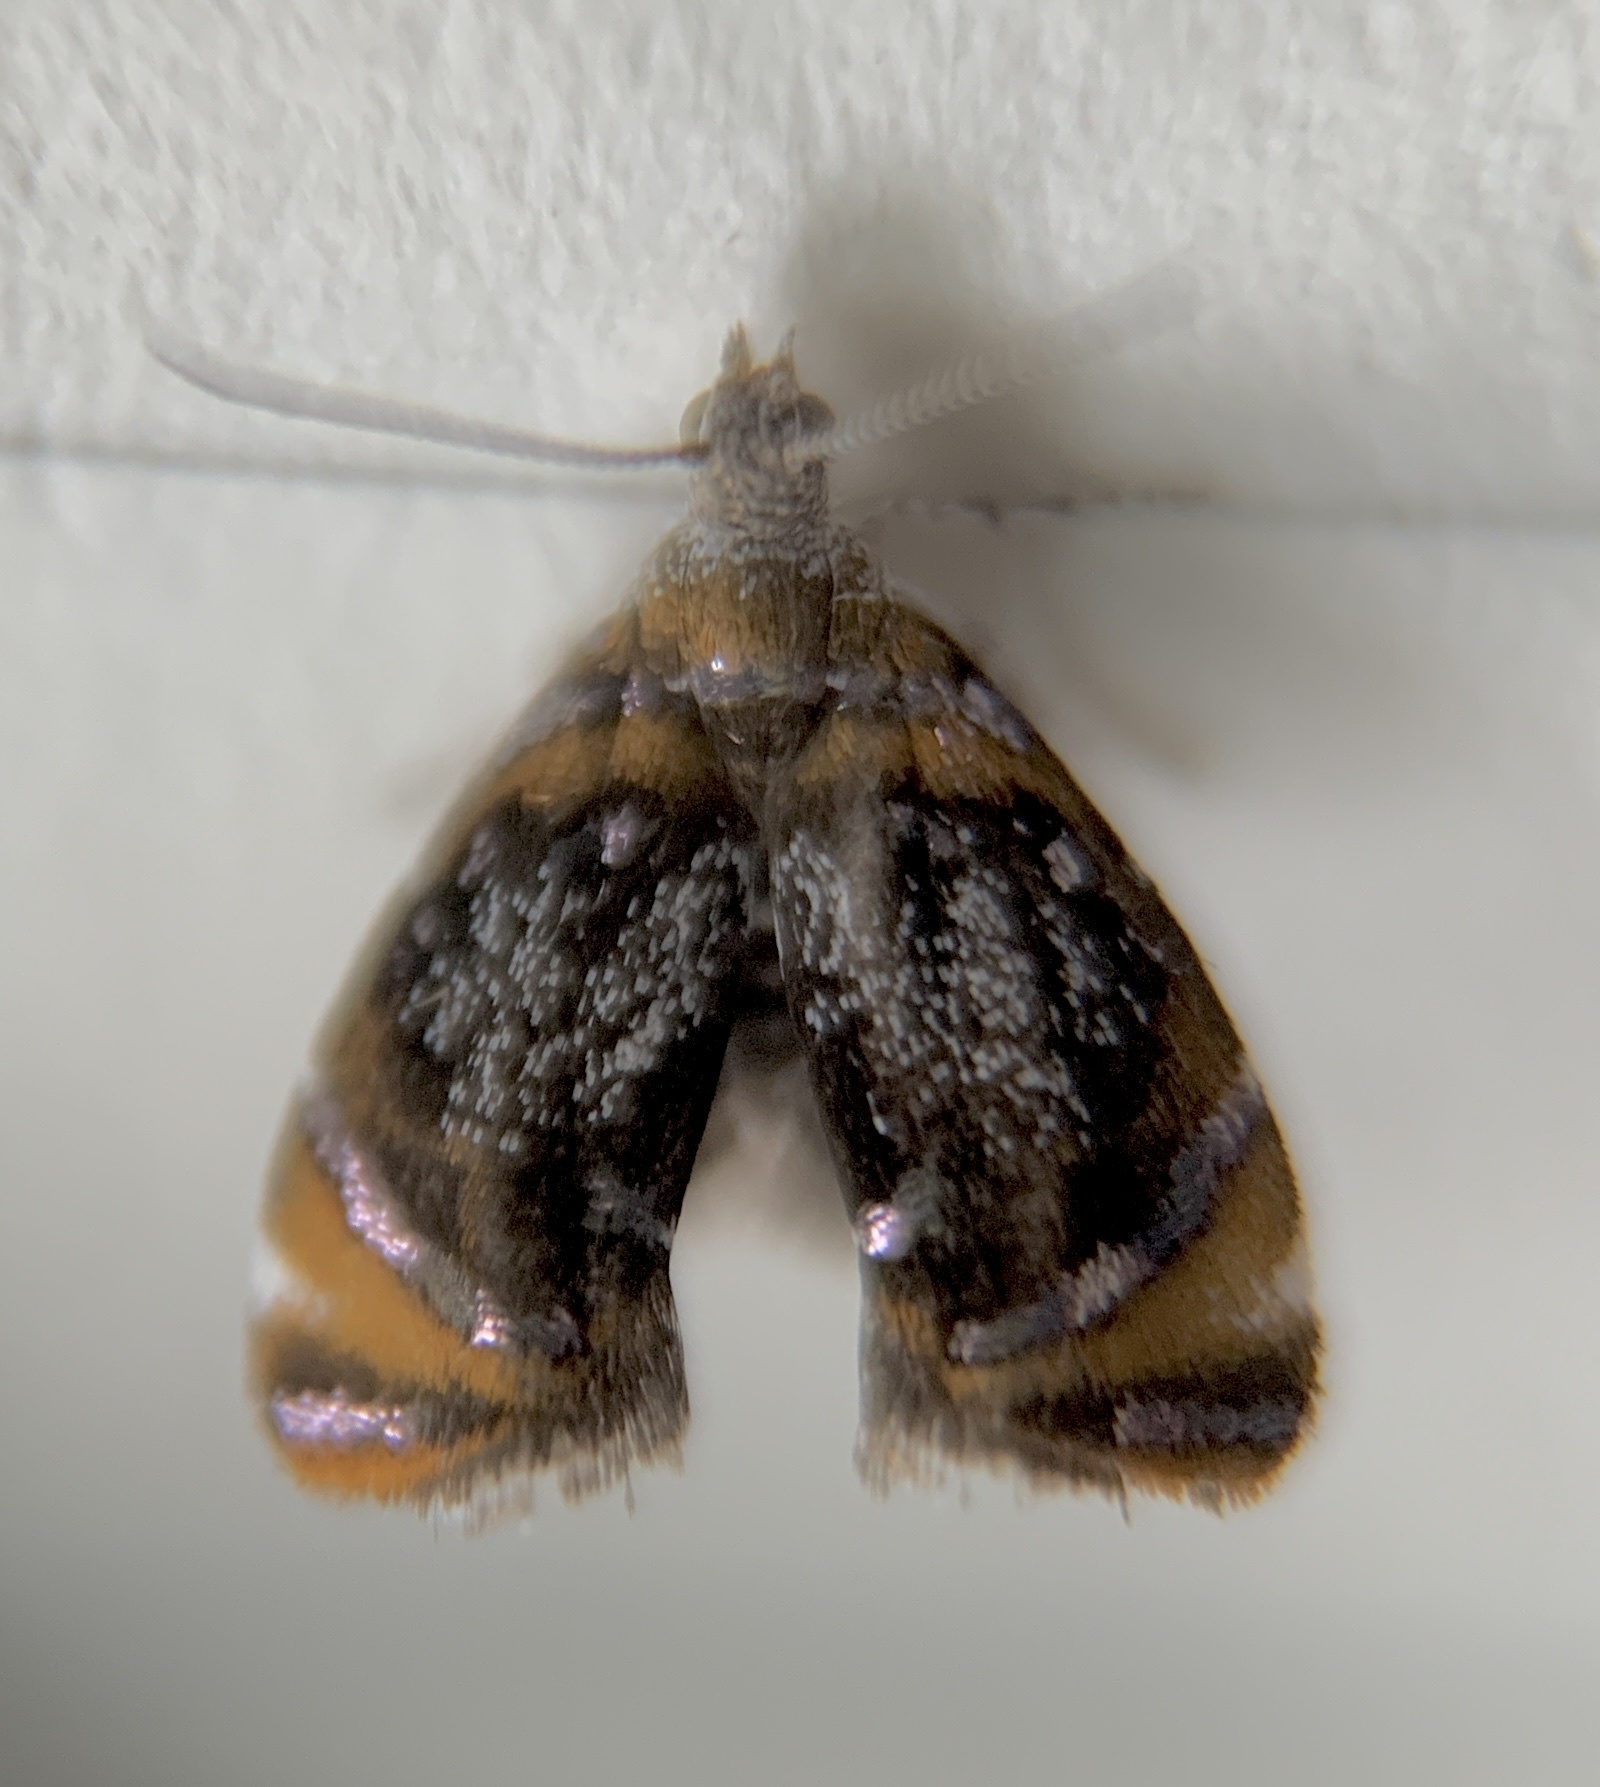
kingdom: Animalia
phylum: Arthropoda
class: Insecta
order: Lepidoptera
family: Choreutidae
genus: Prochoreutis
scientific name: Prochoreutis inflatella
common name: Skullcap skeletonizer moth
